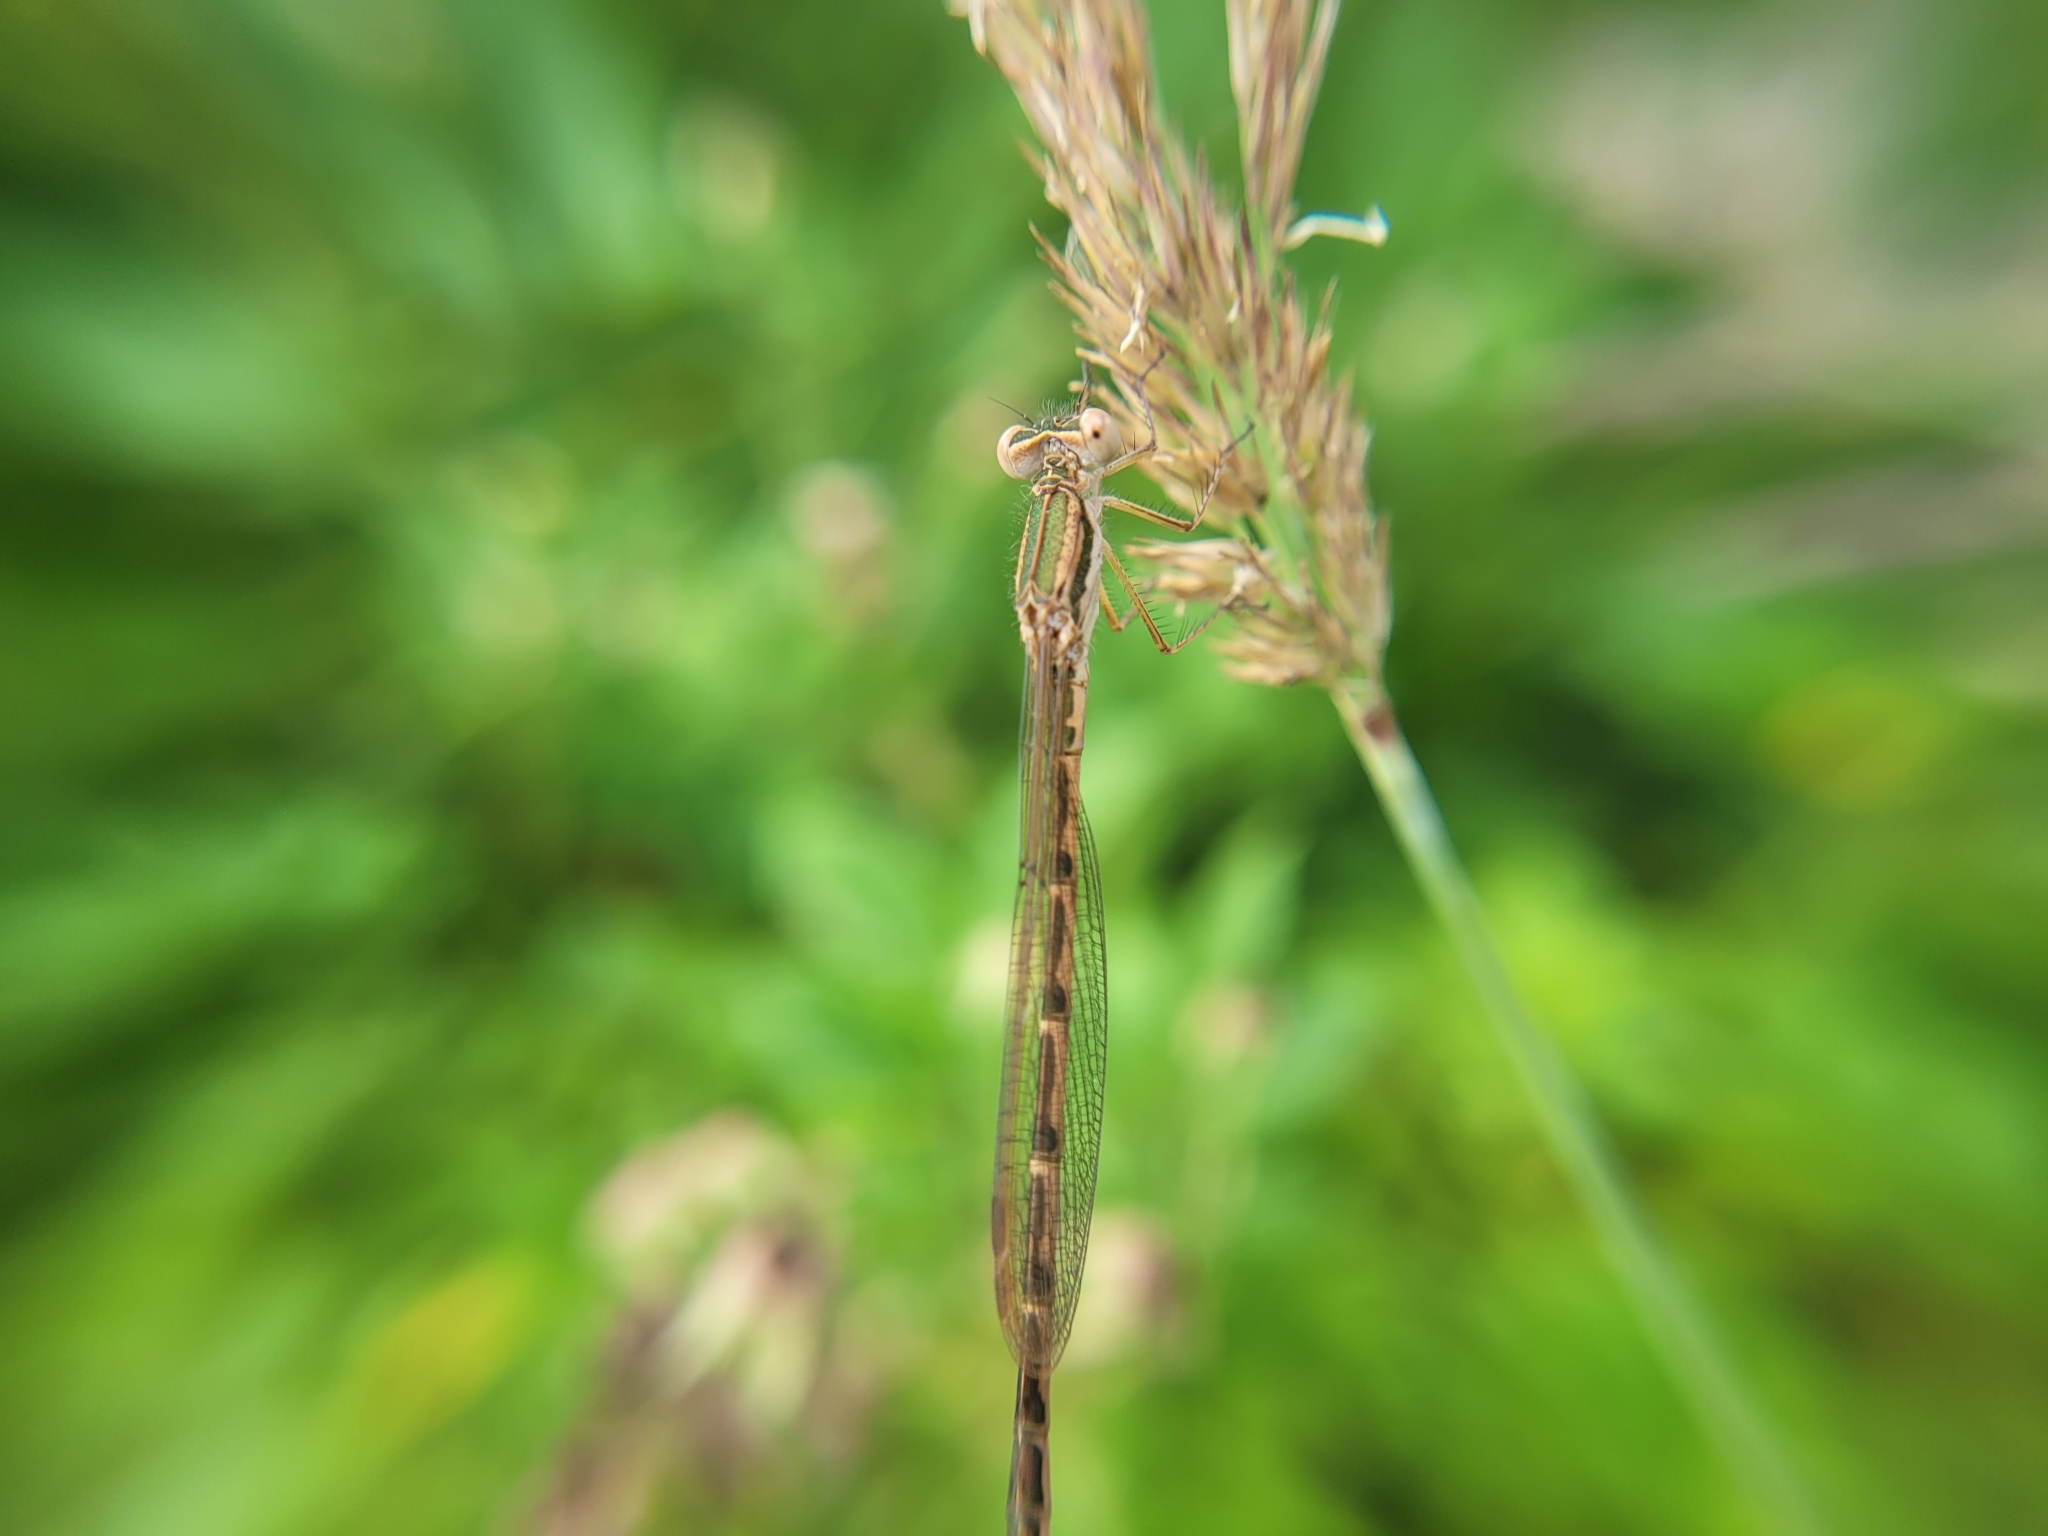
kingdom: Animalia
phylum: Arthropoda
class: Insecta
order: Odonata
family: Lestidae
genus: Sympecma
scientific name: Sympecma fusca
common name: Common winter damsel
